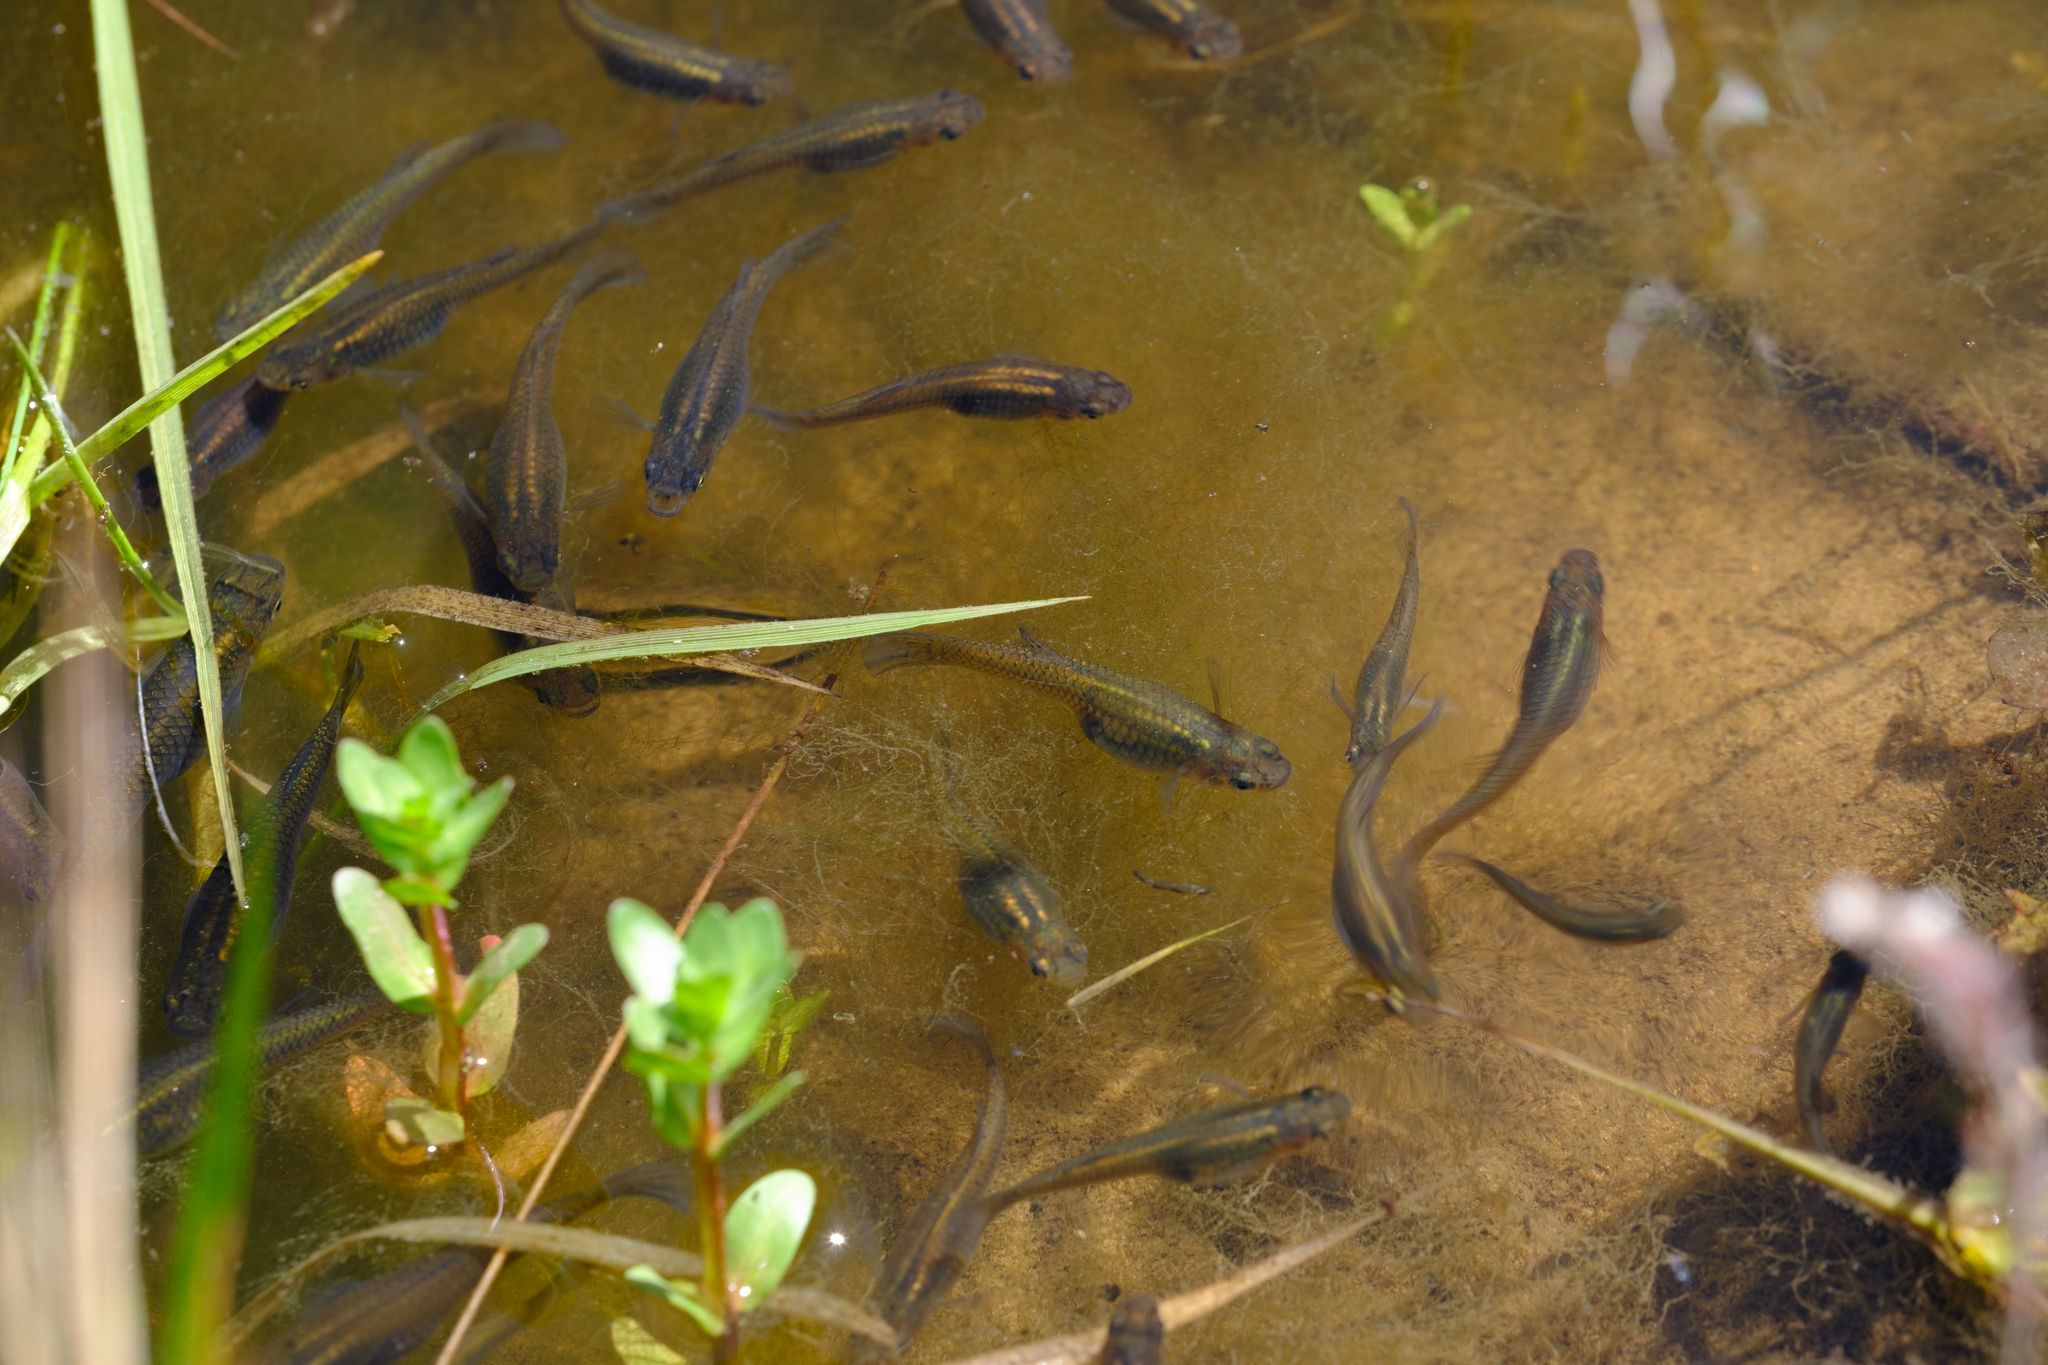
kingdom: Animalia
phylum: Chordata
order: Cyprinodontiformes
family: Poeciliidae
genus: Gambusia
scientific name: Gambusia affinis
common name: Mosquitofish
